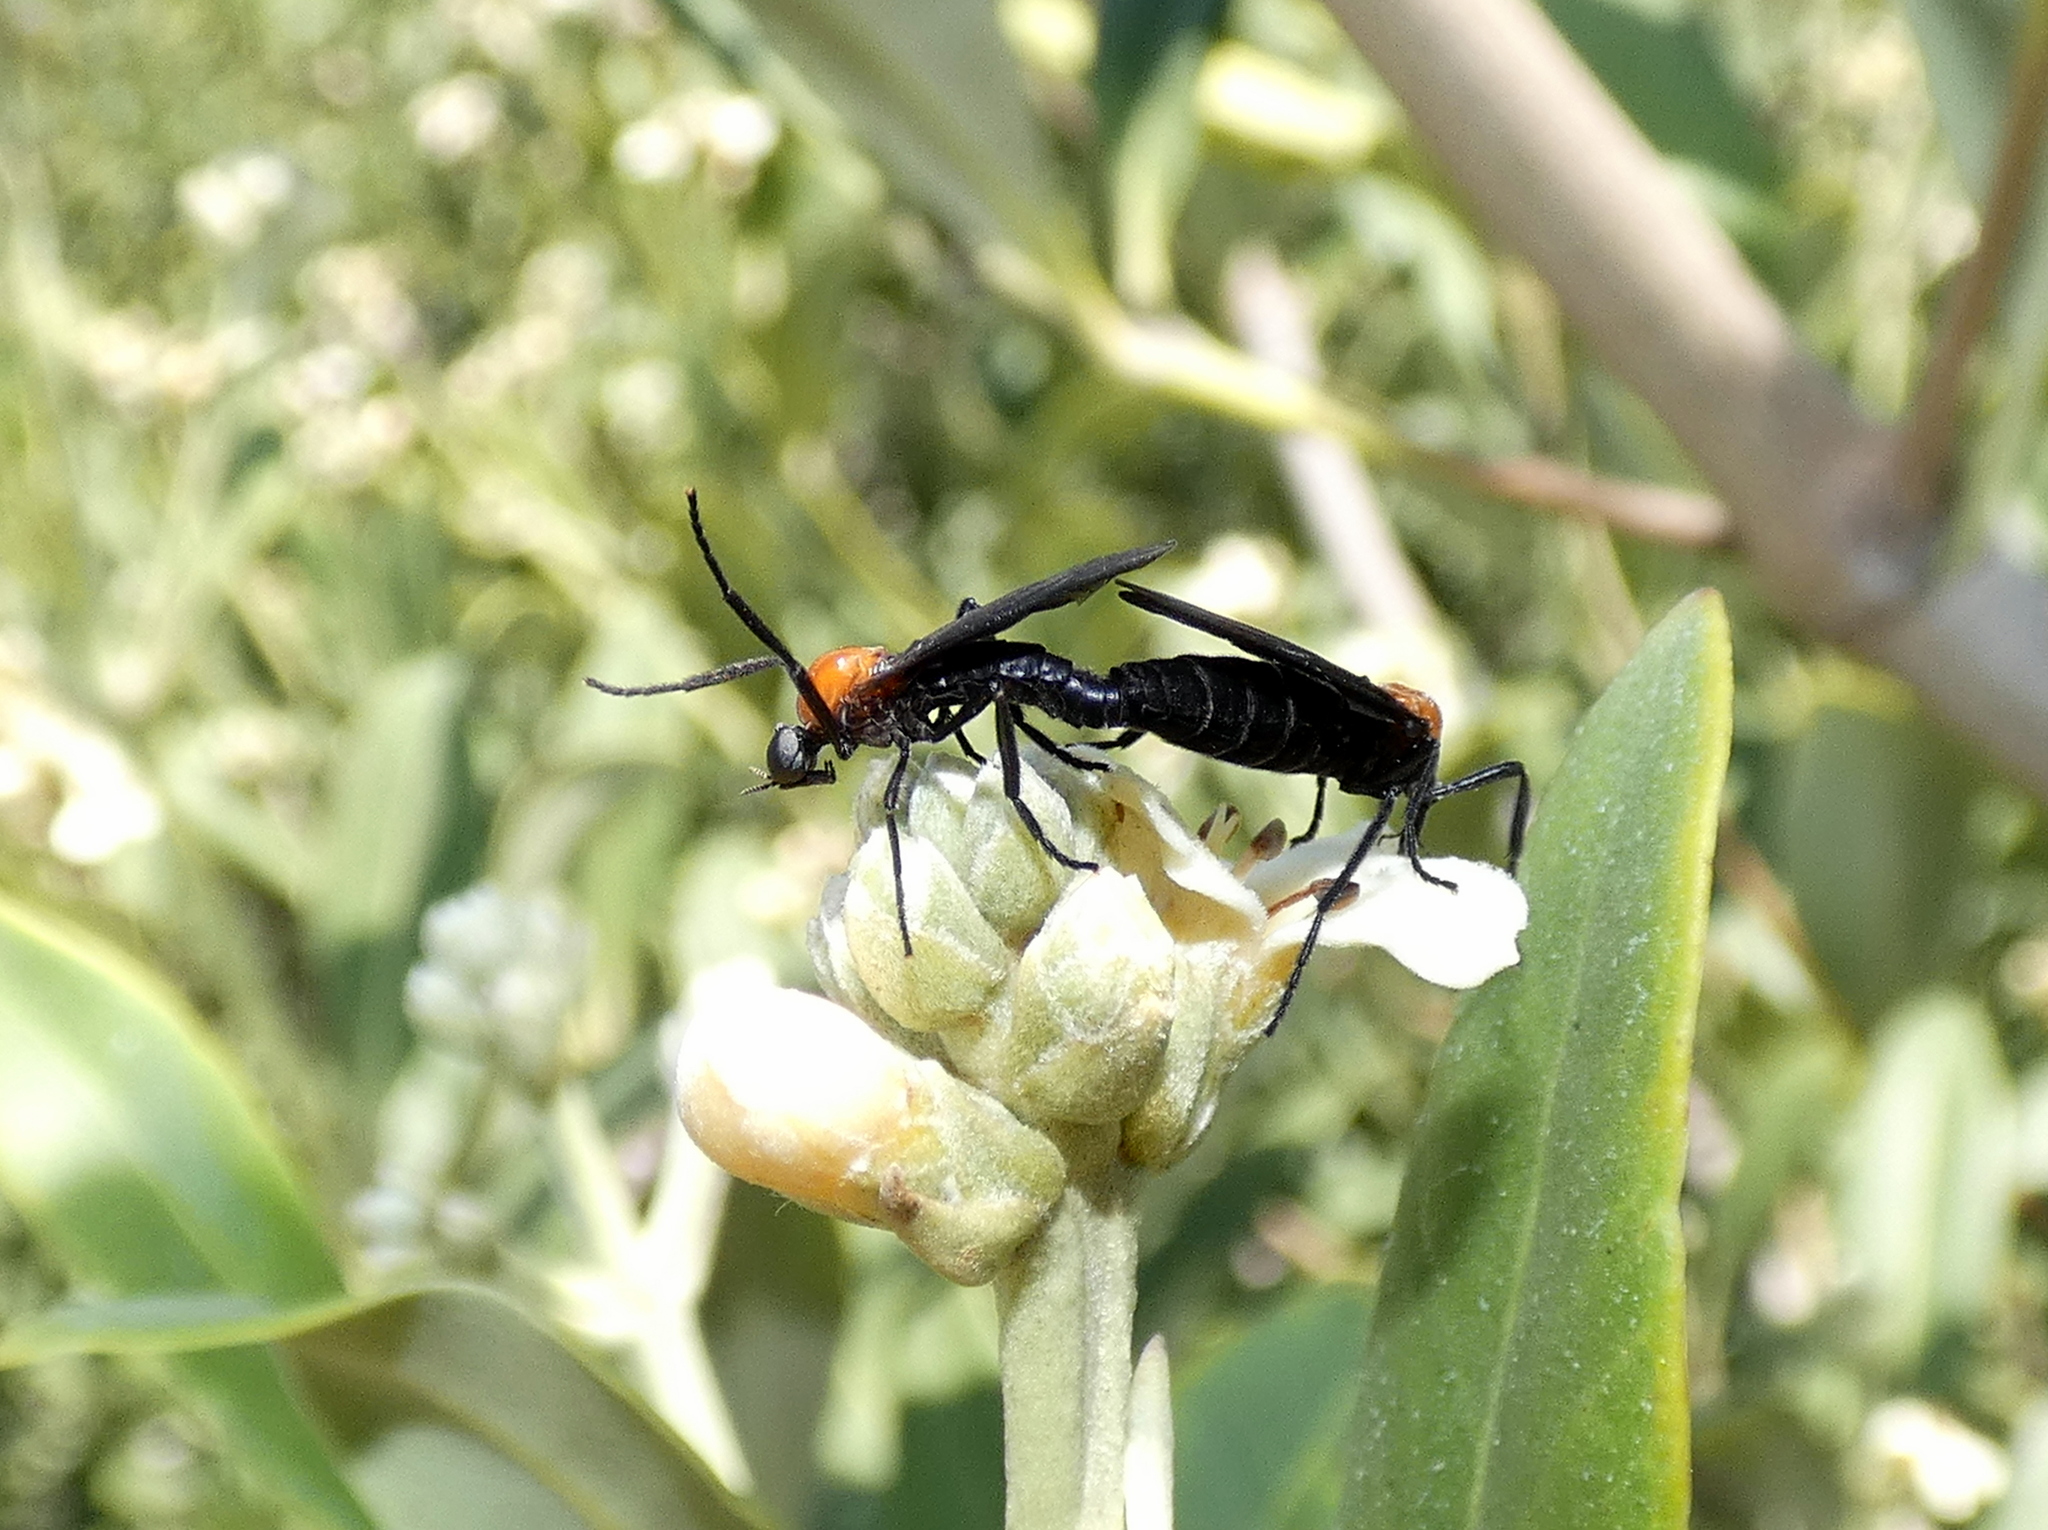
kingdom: Animalia
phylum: Arthropoda
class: Insecta
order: Diptera
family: Bibionidae
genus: Plecia
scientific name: Plecia nearctica
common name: March fly
